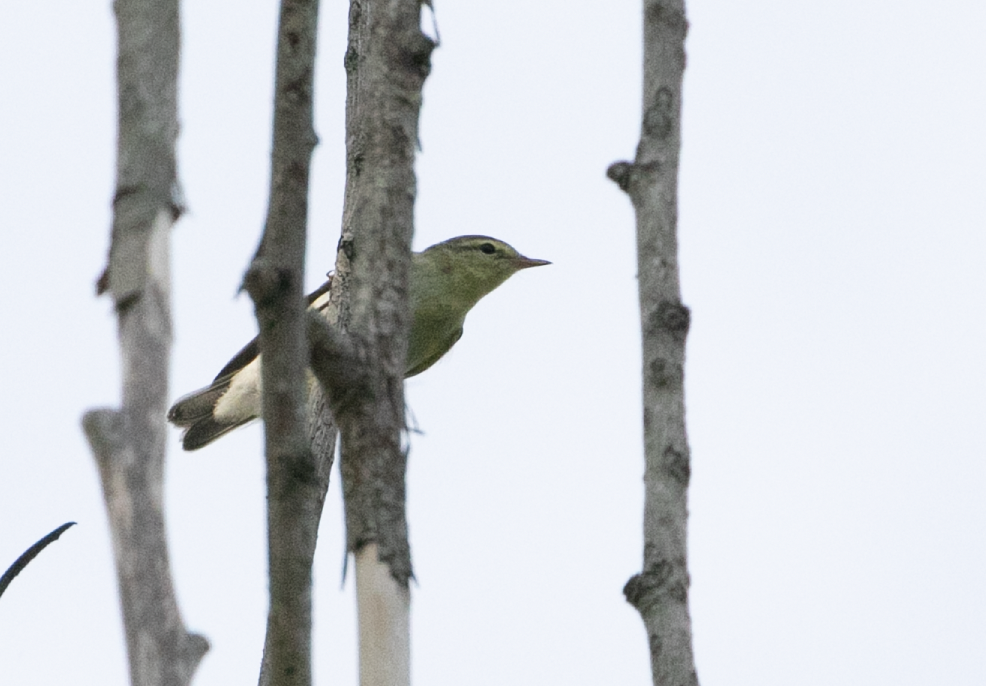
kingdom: Animalia
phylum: Chordata
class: Aves
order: Passeriformes
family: Phylloscopidae
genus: Phylloscopus
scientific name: Phylloscopus sibillatrix
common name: Wood warbler
